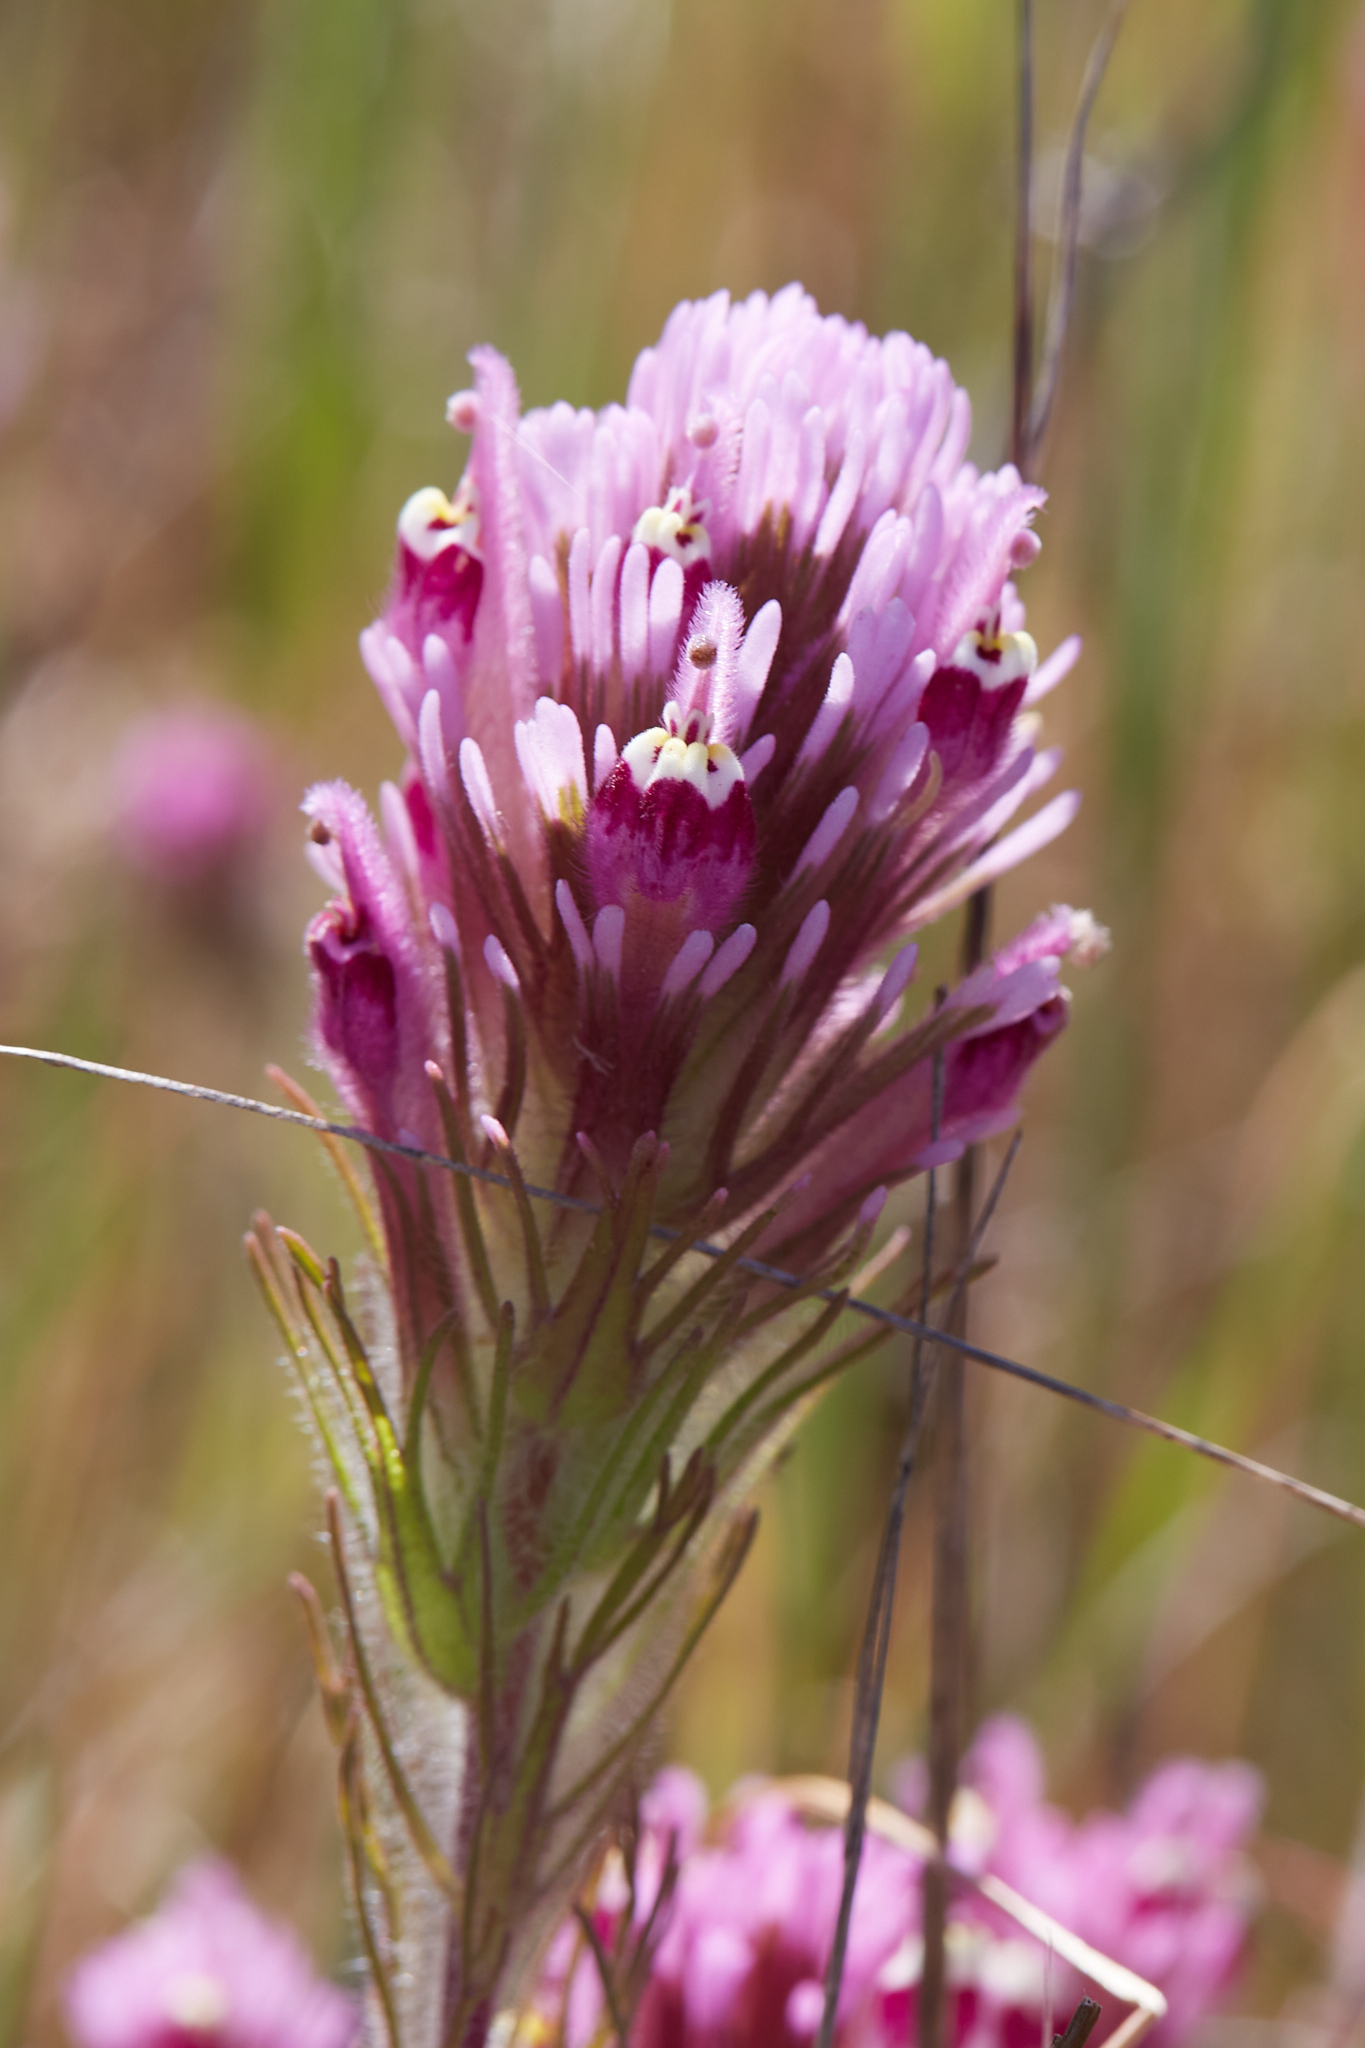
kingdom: Plantae
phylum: Tracheophyta
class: Magnoliopsida
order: Lamiales
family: Orobanchaceae
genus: Castilleja
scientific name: Castilleja exserta
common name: Purple owl-clover
